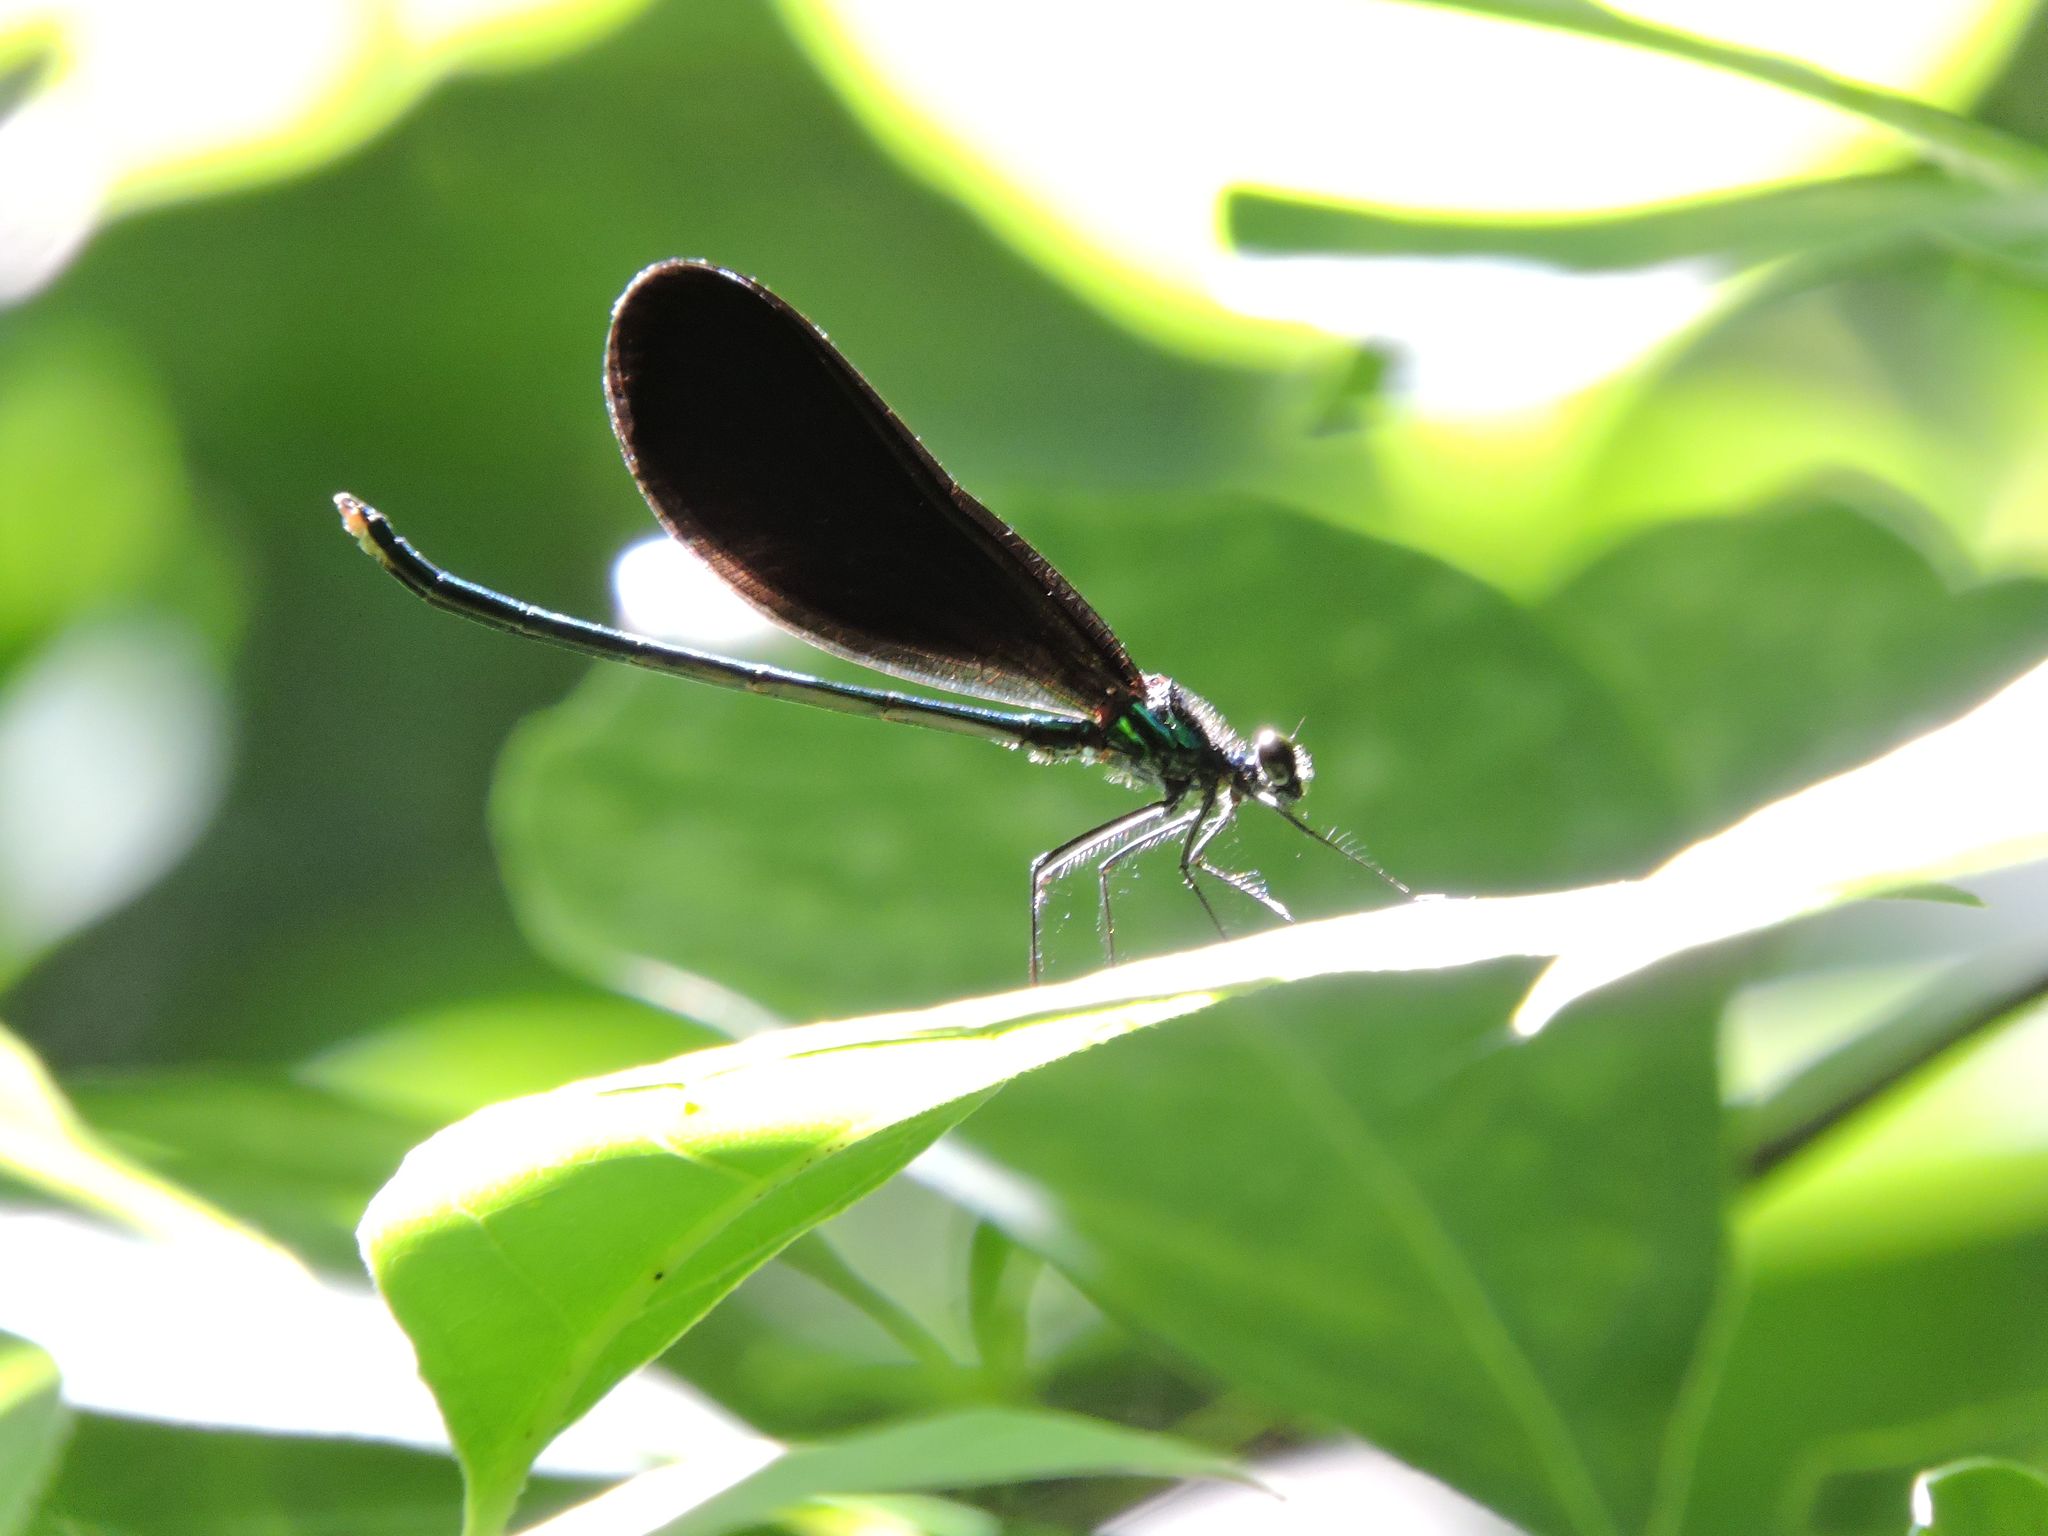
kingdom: Animalia
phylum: Arthropoda
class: Insecta
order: Odonata
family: Calopterygidae
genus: Calopteryx
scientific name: Calopteryx maculata
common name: Ebony jewelwing
